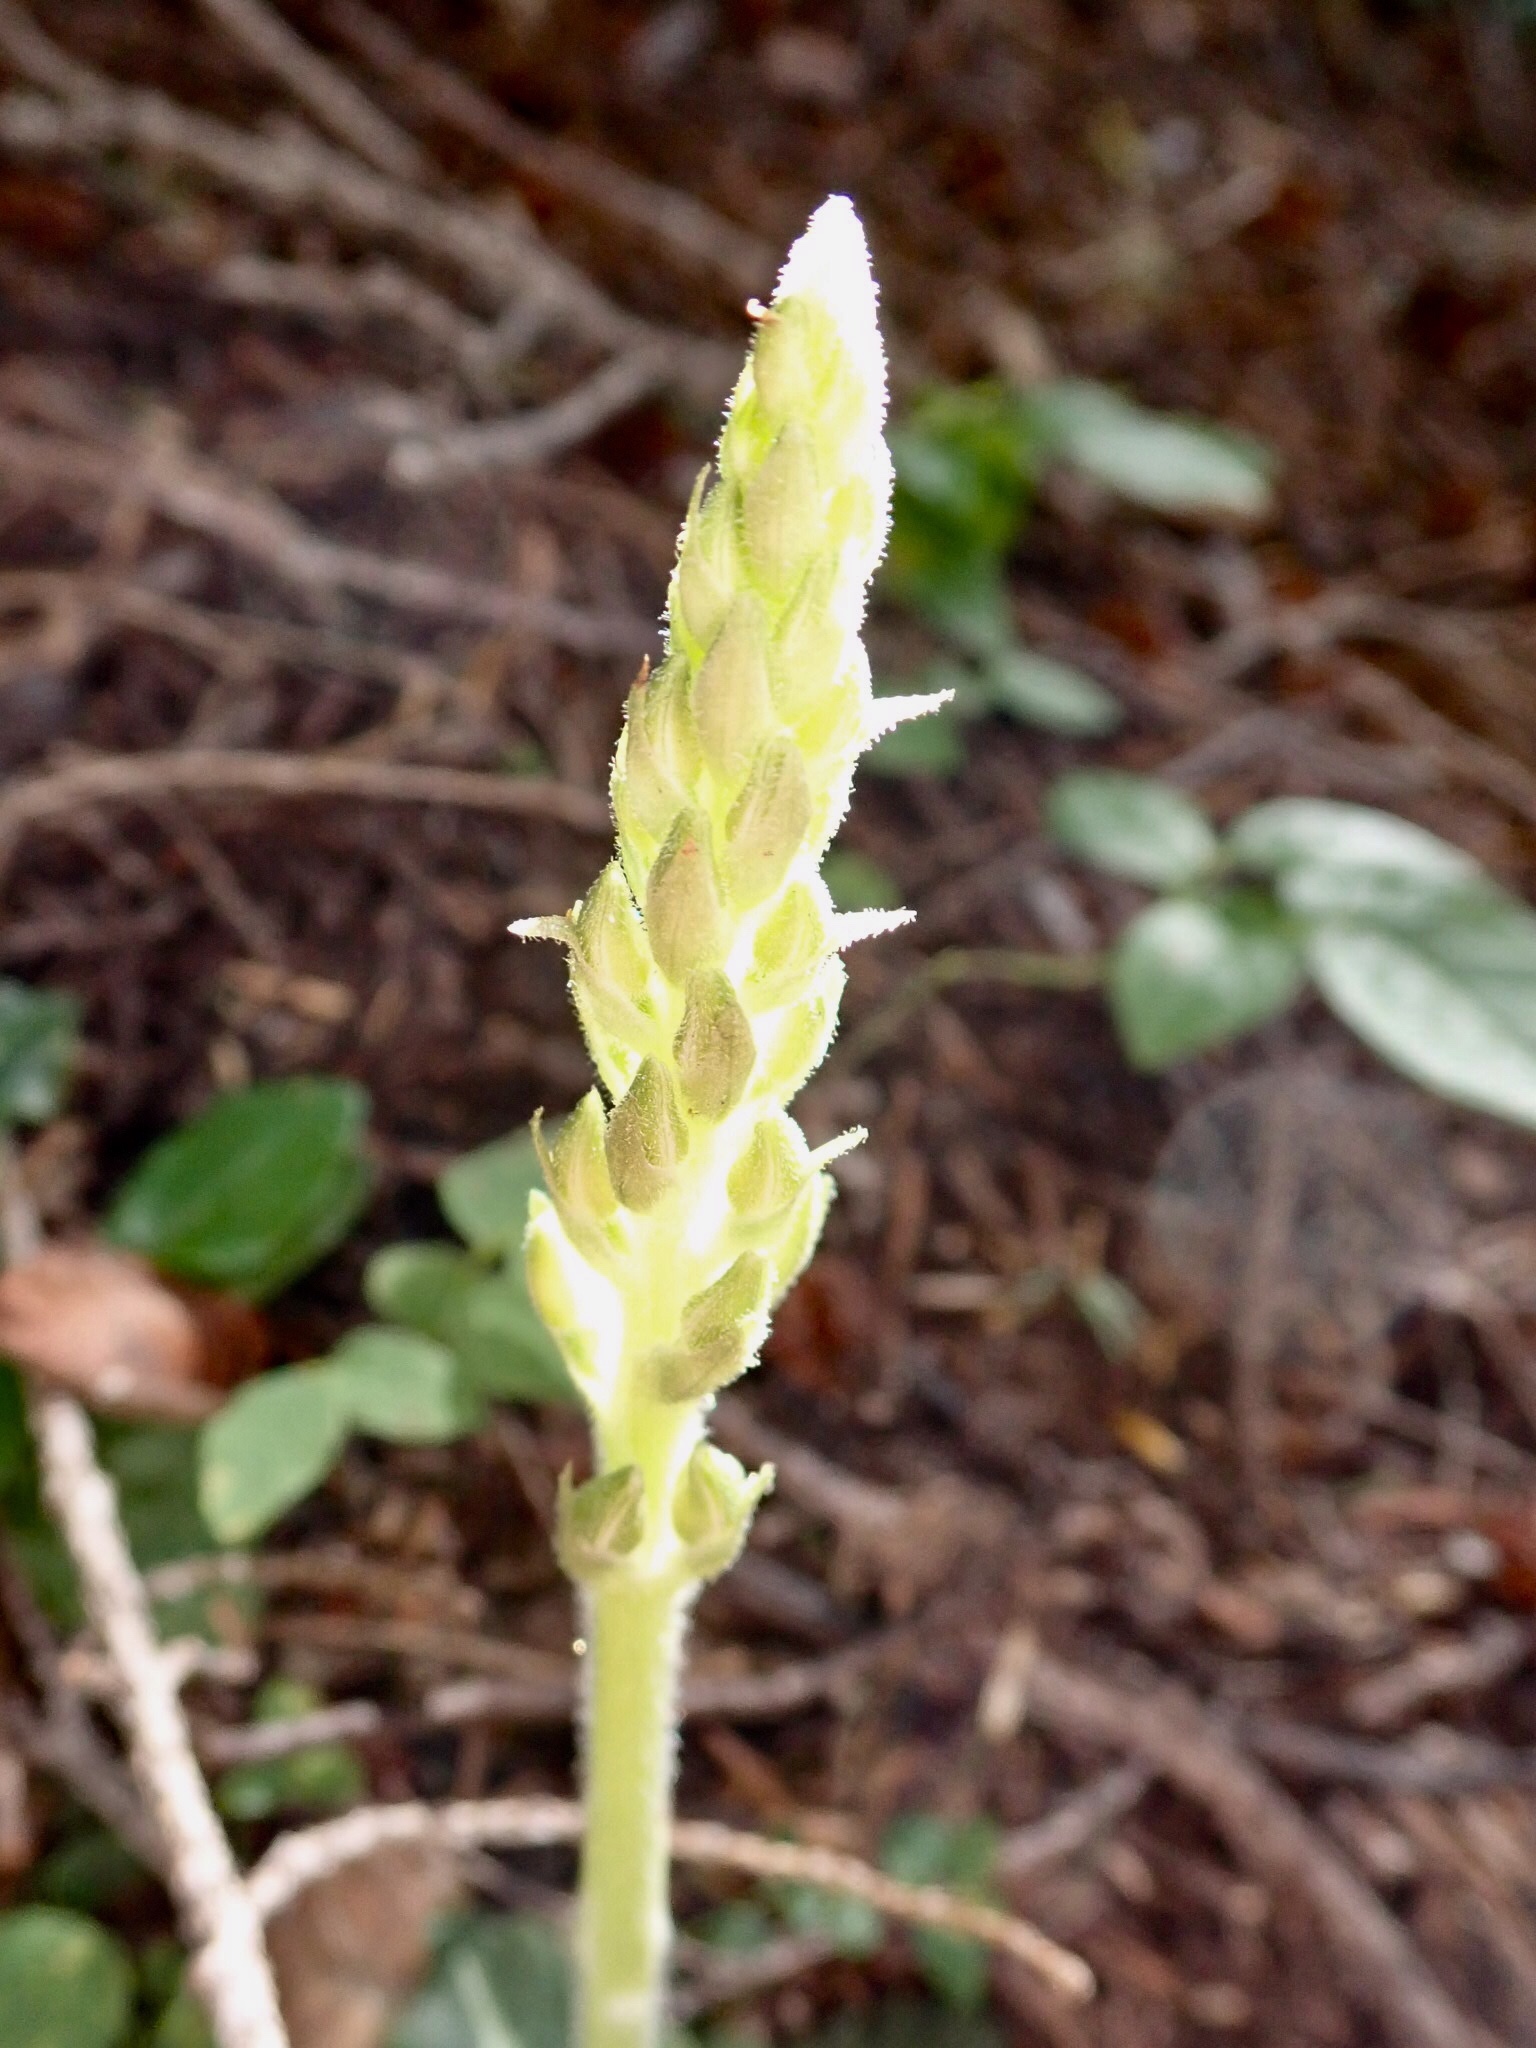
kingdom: Plantae
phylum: Tracheophyta
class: Liliopsida
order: Asparagales
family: Orchidaceae
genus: Goodyera
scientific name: Goodyera oblongifolia
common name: Giant rattlesnake-plantain
